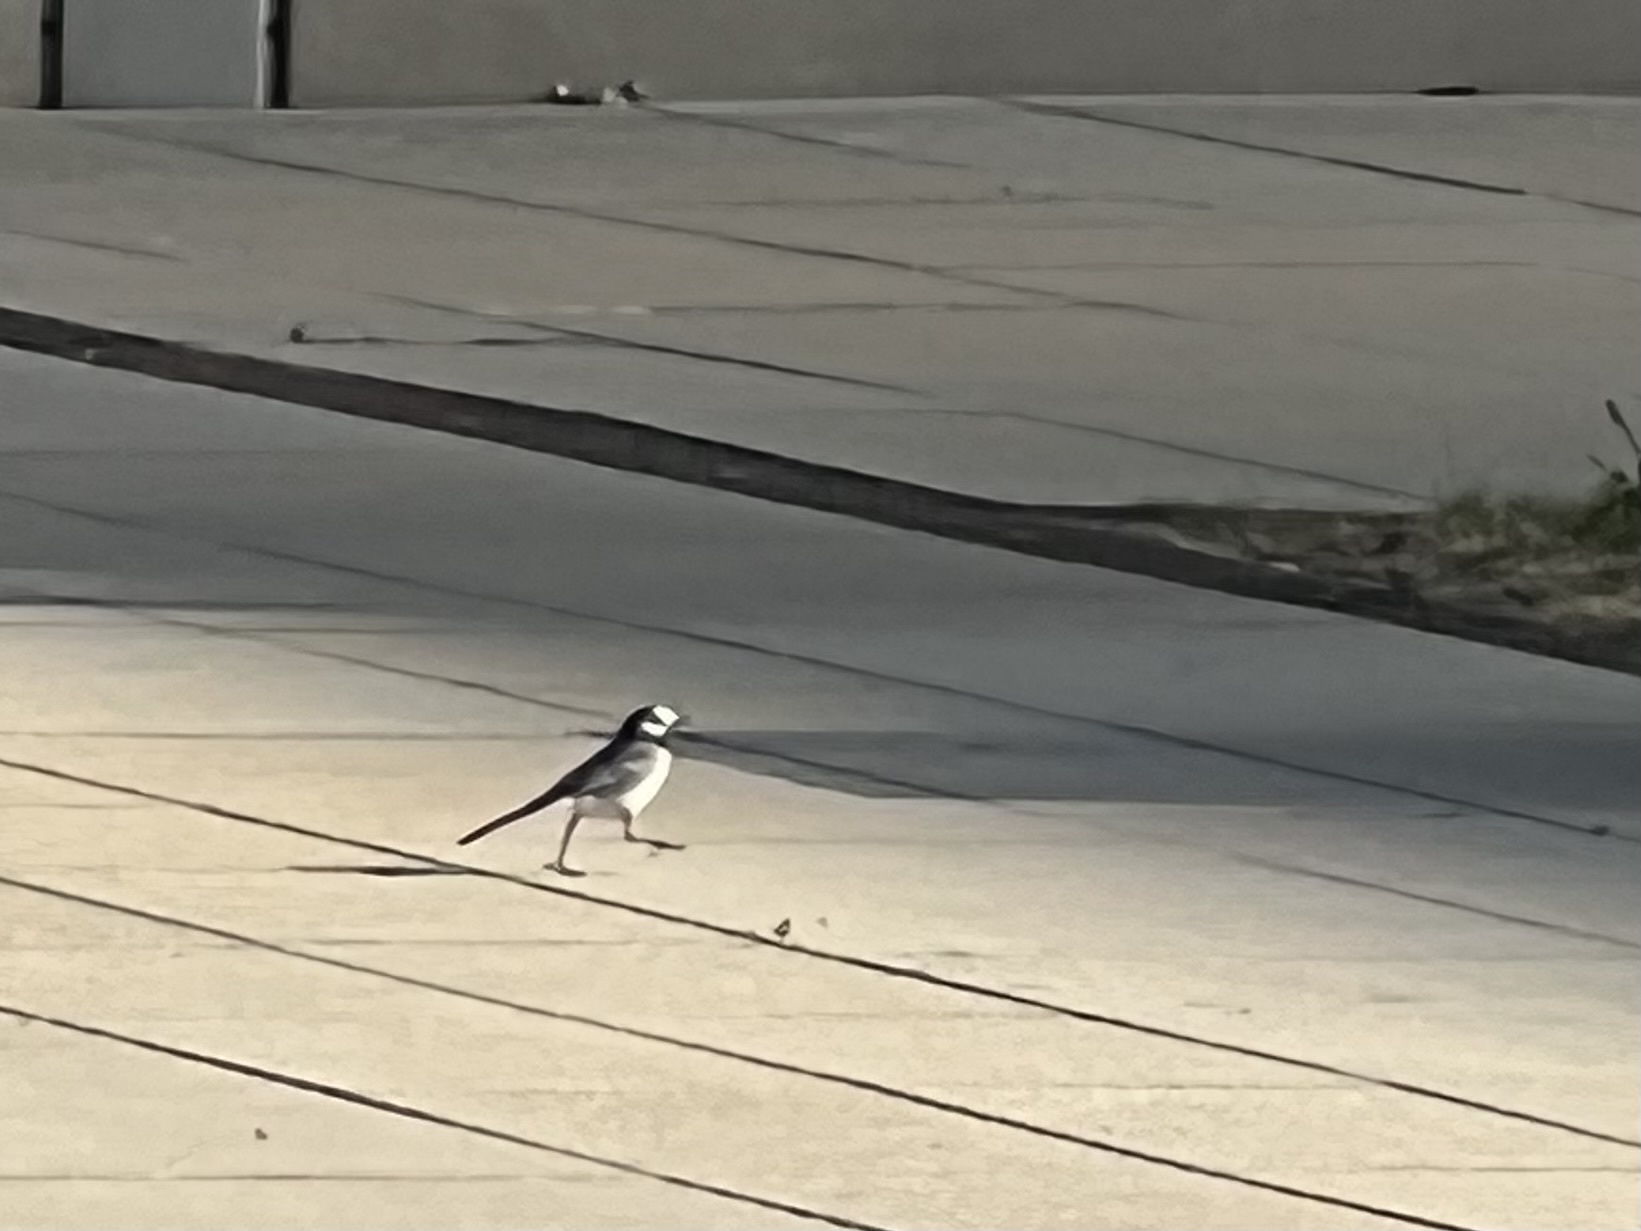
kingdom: Animalia
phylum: Chordata
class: Aves
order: Passeriformes
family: Motacillidae
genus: Motacilla
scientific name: Motacilla alba
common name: White wagtail
